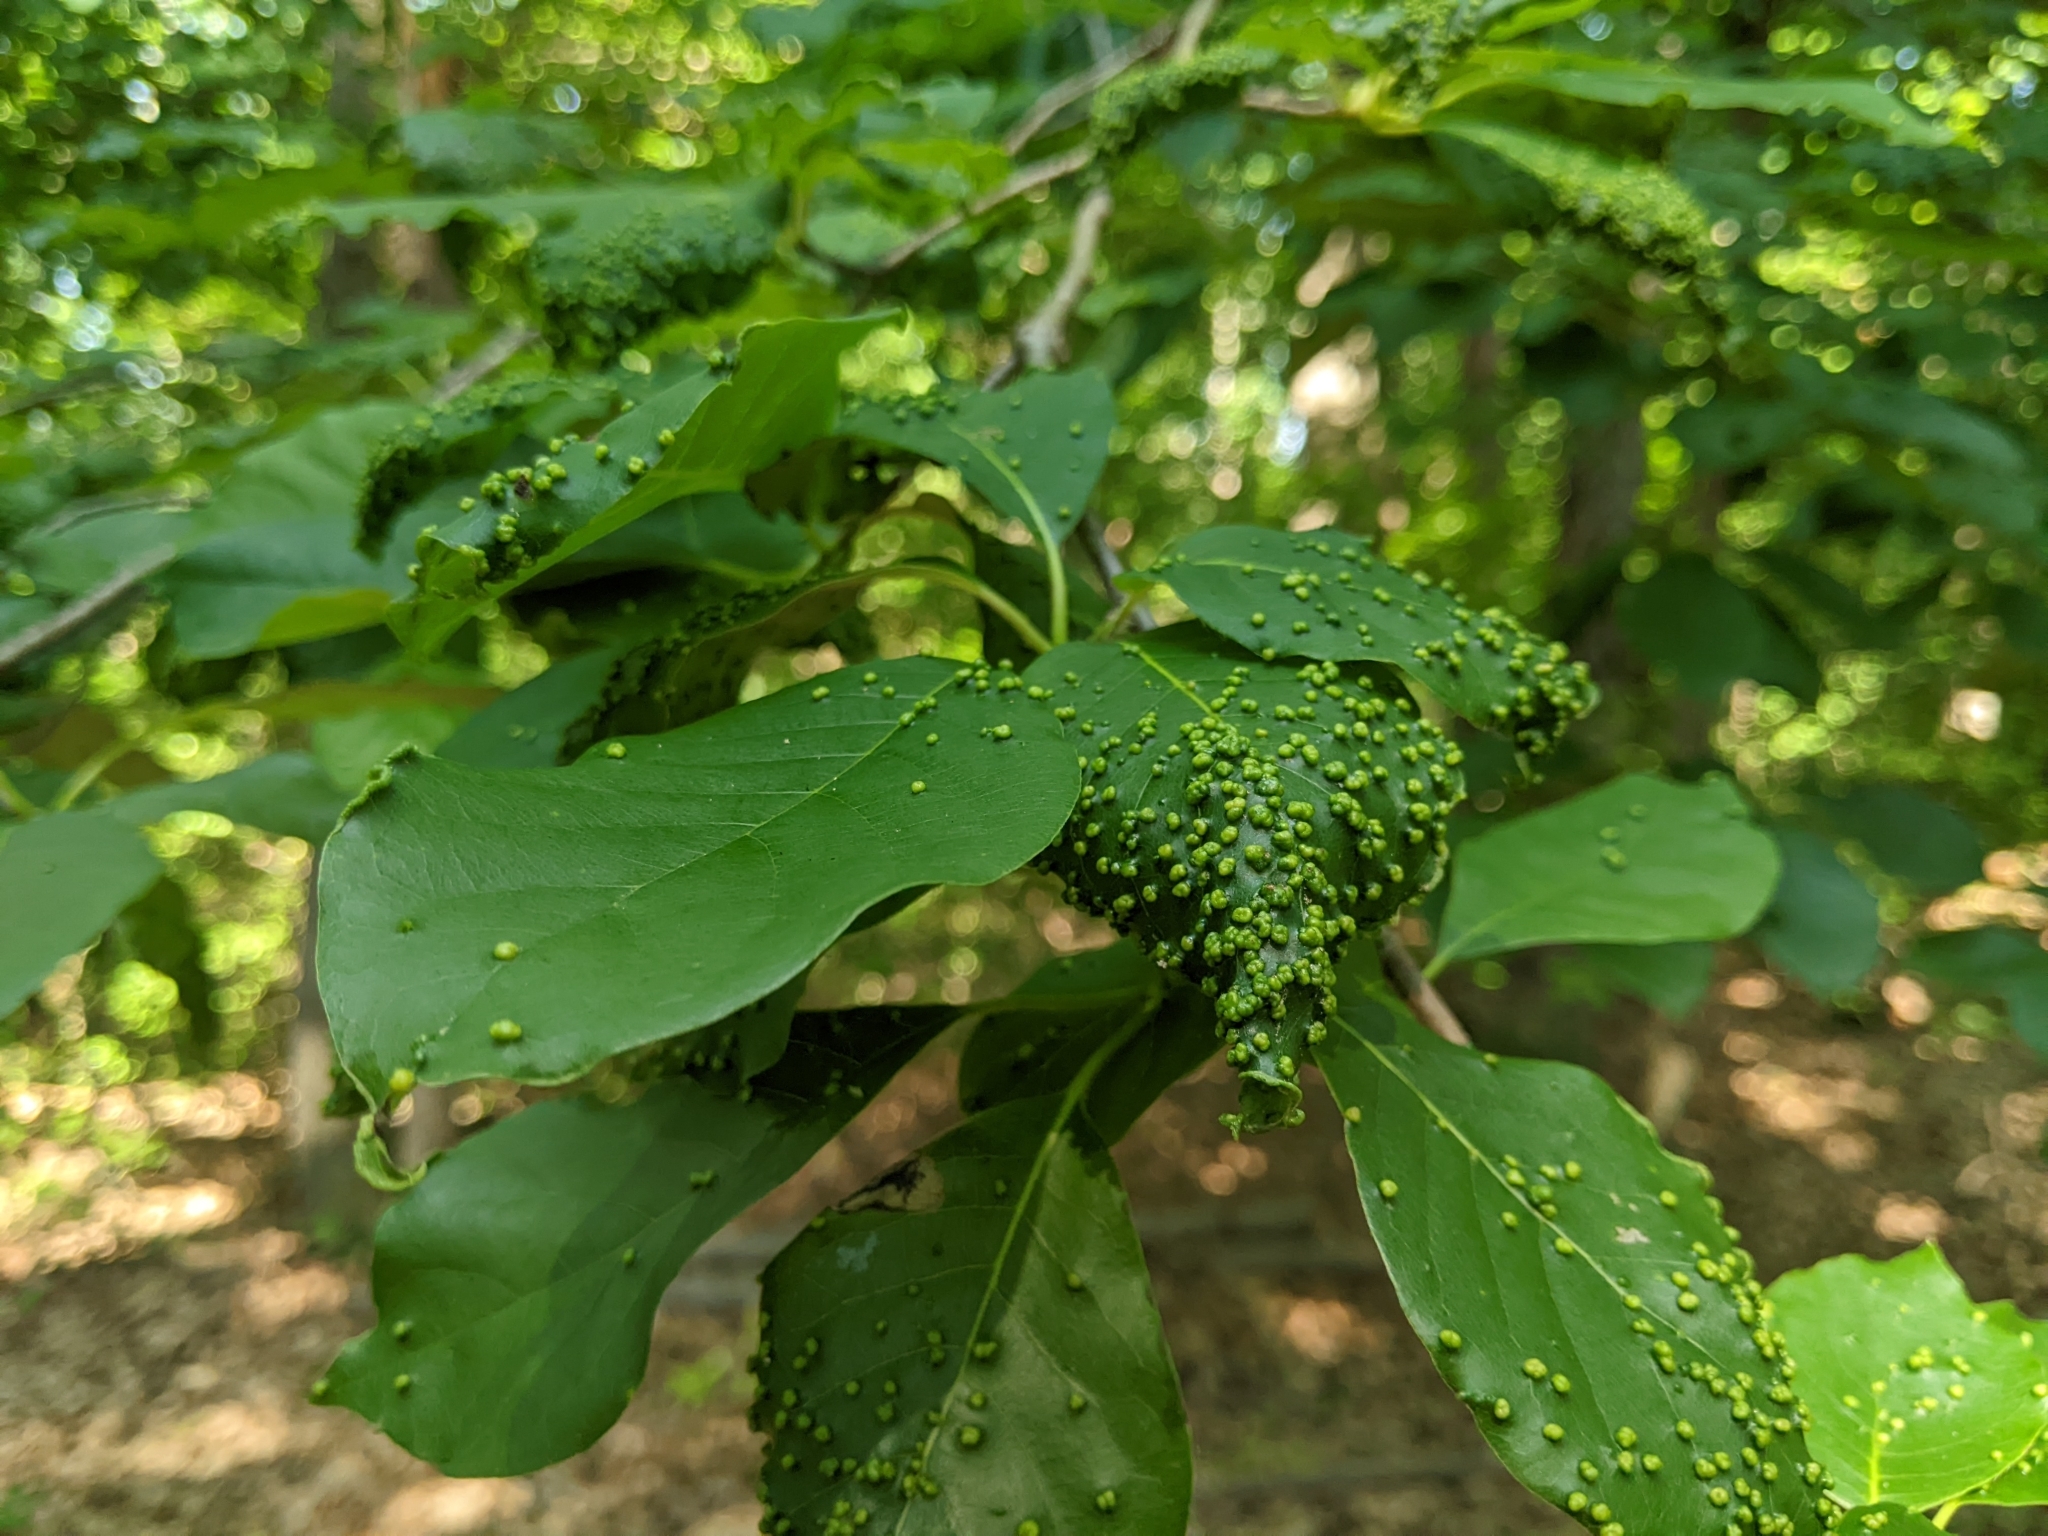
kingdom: Animalia
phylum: Arthropoda
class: Arachnida
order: Trombidiformes
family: Eriophyidae
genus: Aceria
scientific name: Aceria
